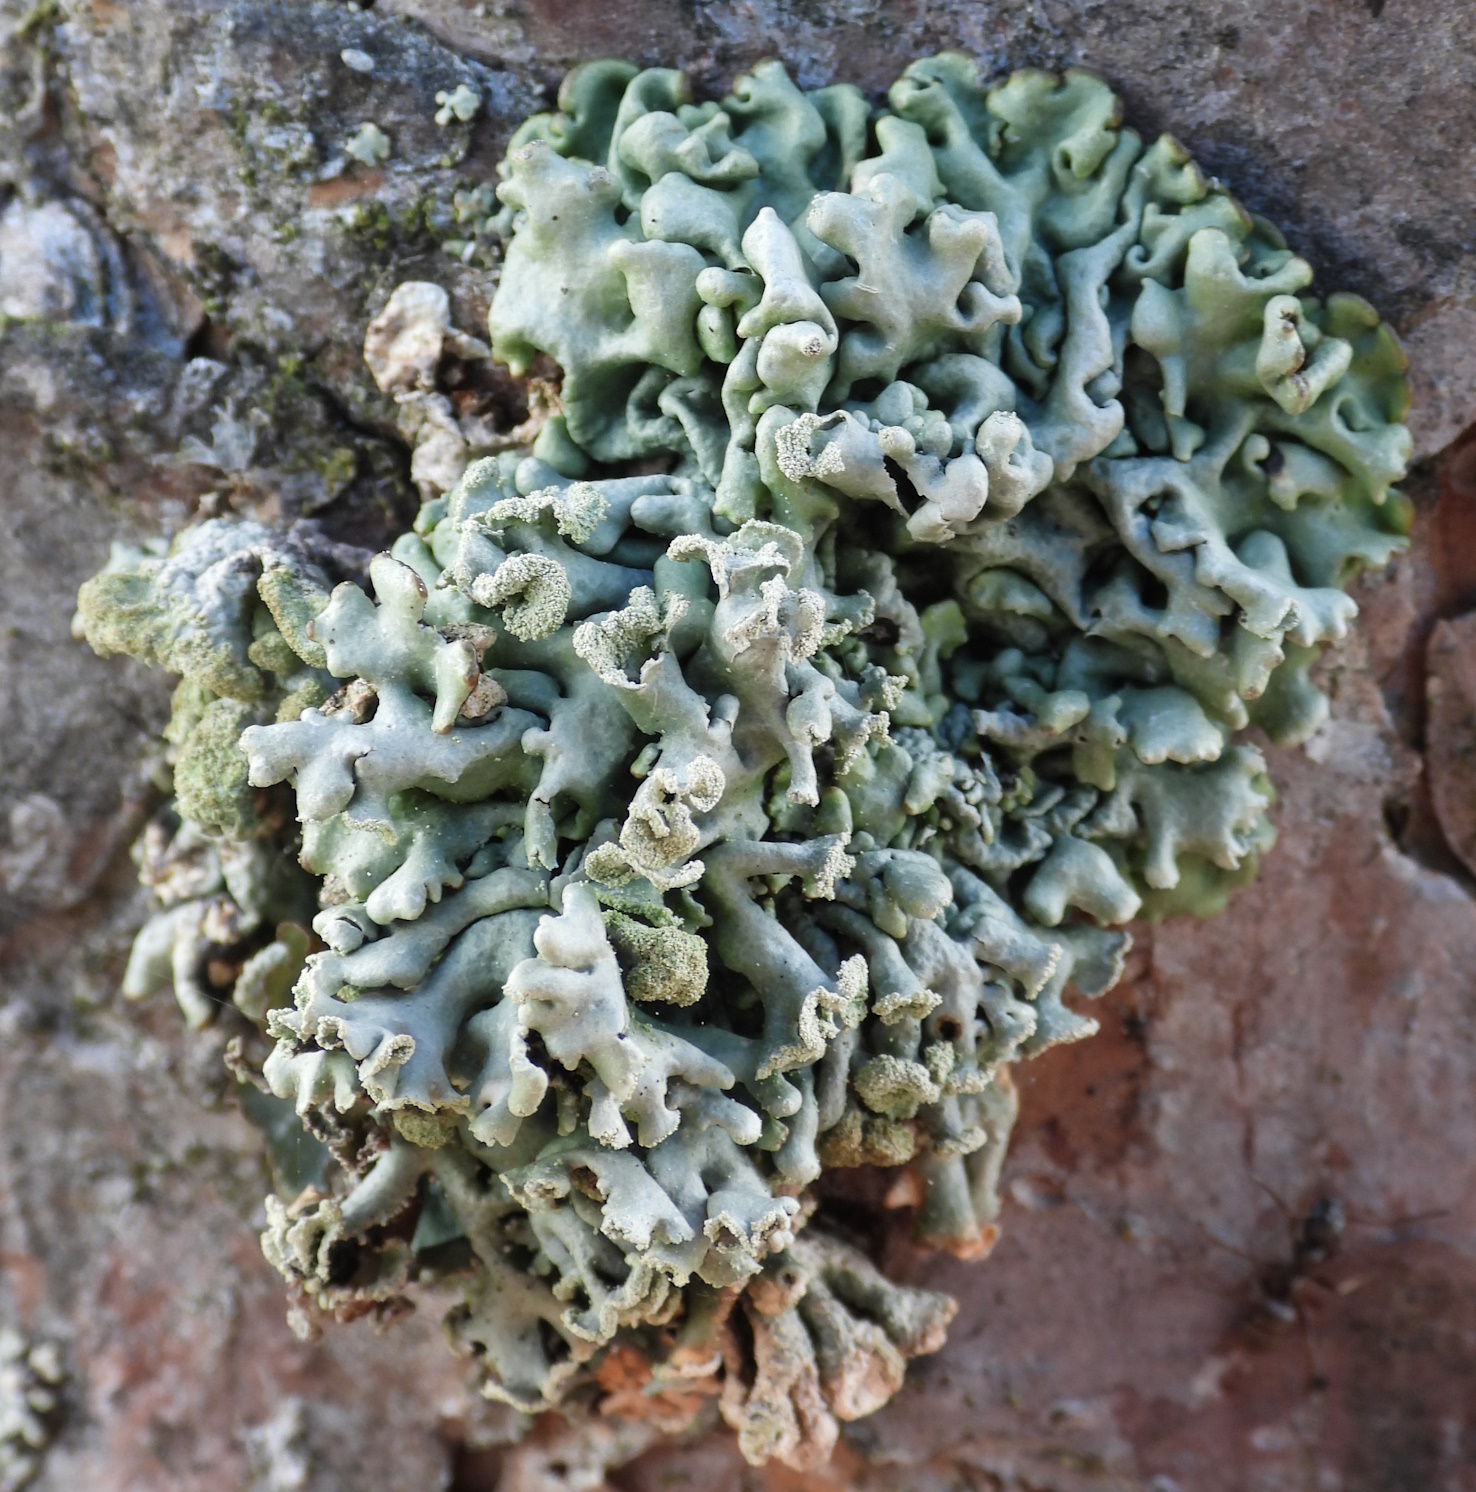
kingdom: Fungi
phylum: Ascomycota
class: Lecanoromycetes
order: Lecanorales
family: Parmeliaceae
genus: Hypogymnia
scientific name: Hypogymnia physodes
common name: Dark crottle
